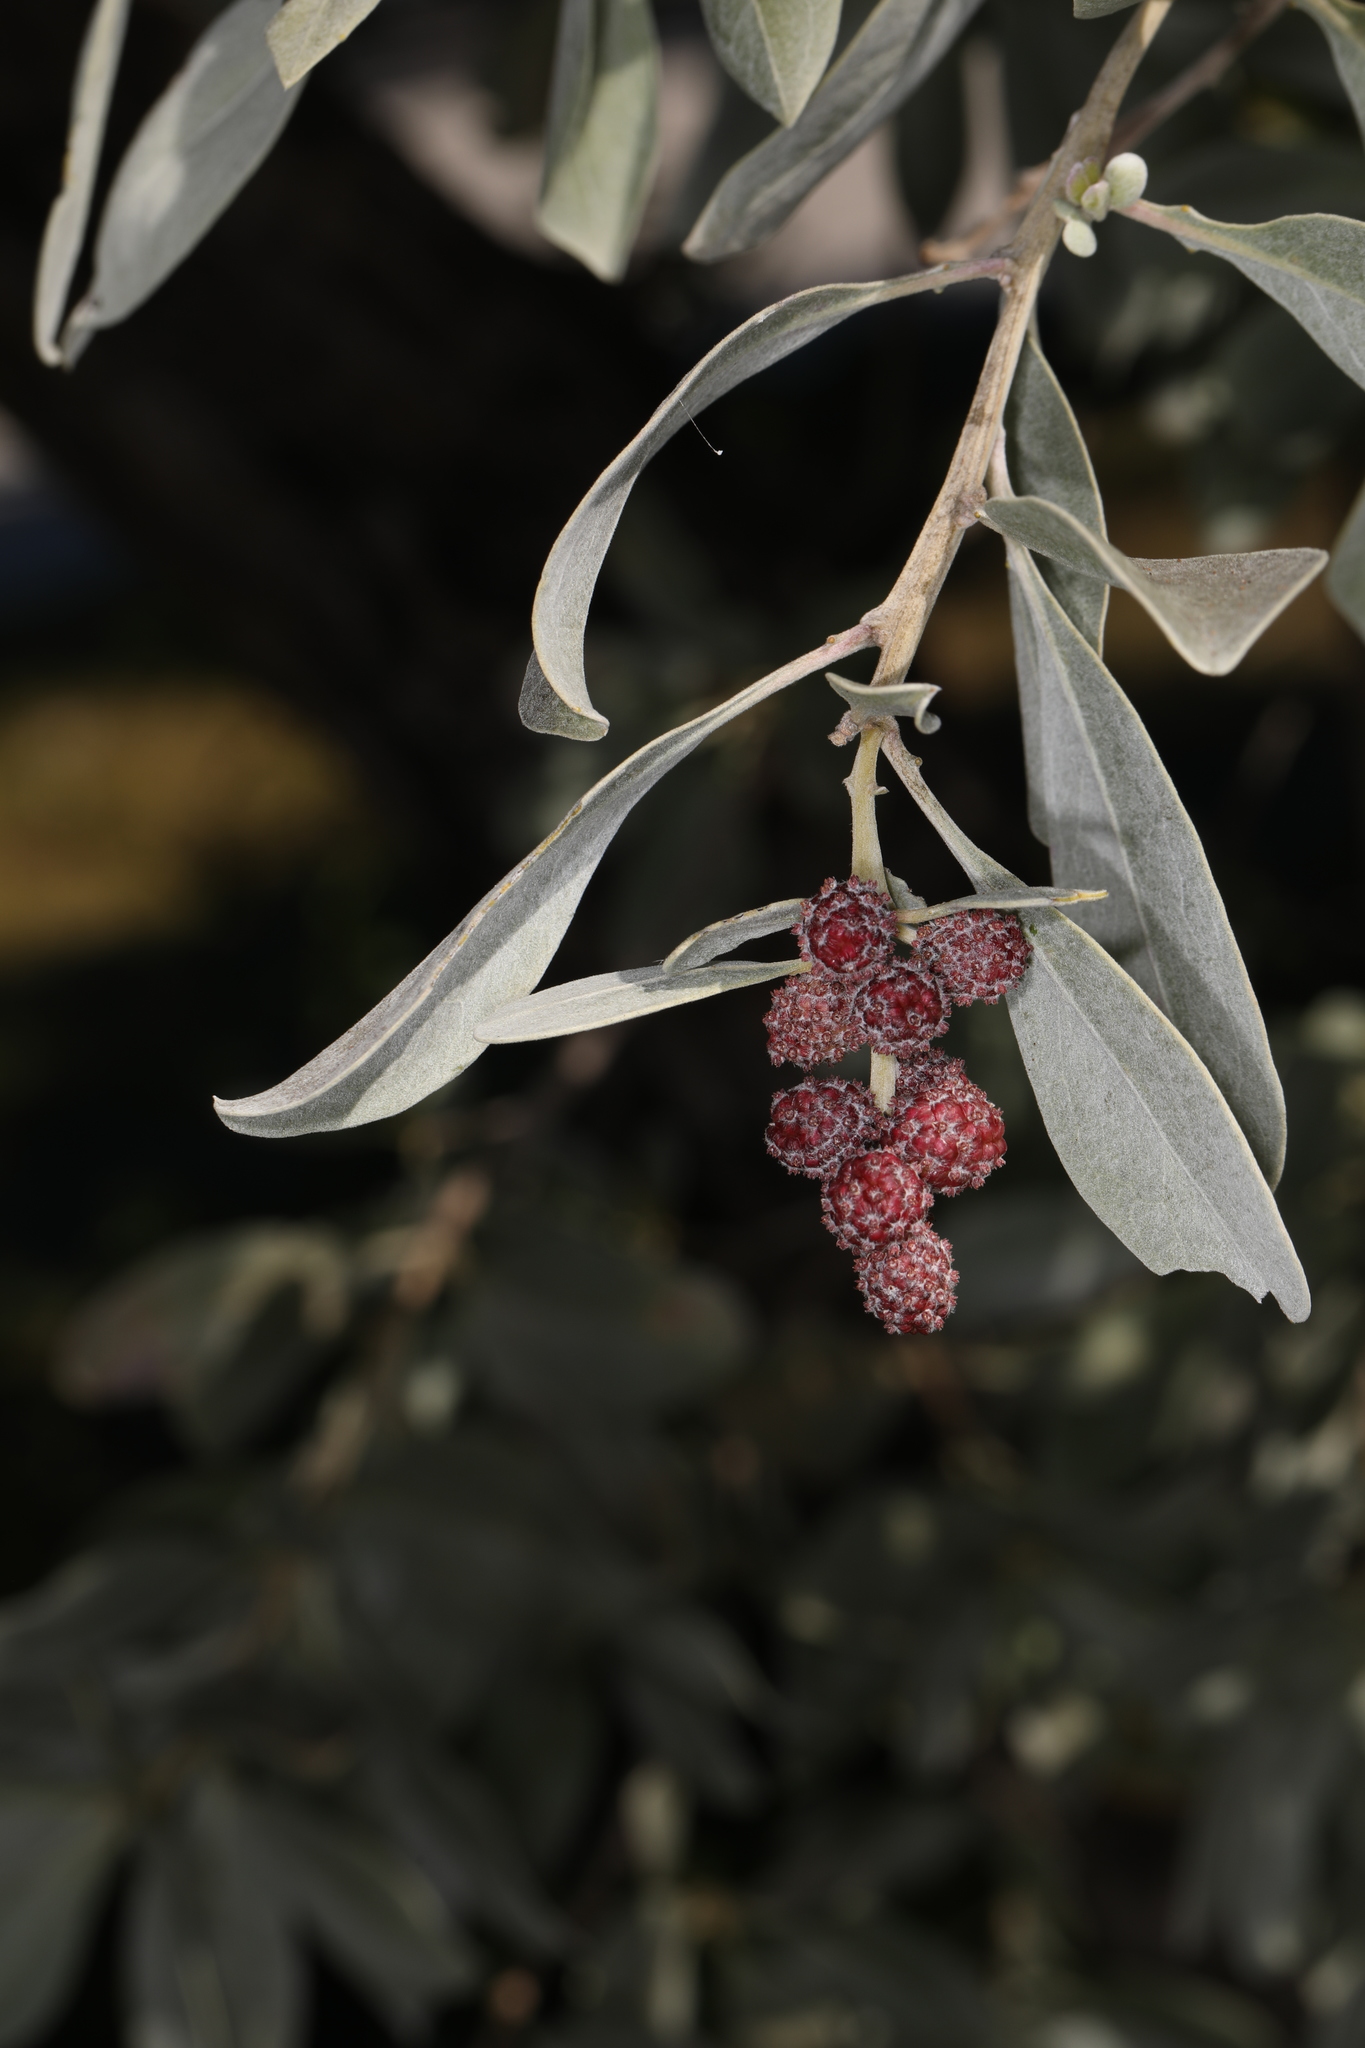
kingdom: Plantae
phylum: Tracheophyta
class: Magnoliopsida
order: Myrtales
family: Combretaceae
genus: Conocarpus
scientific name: Conocarpus erectus
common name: Button mangrove
